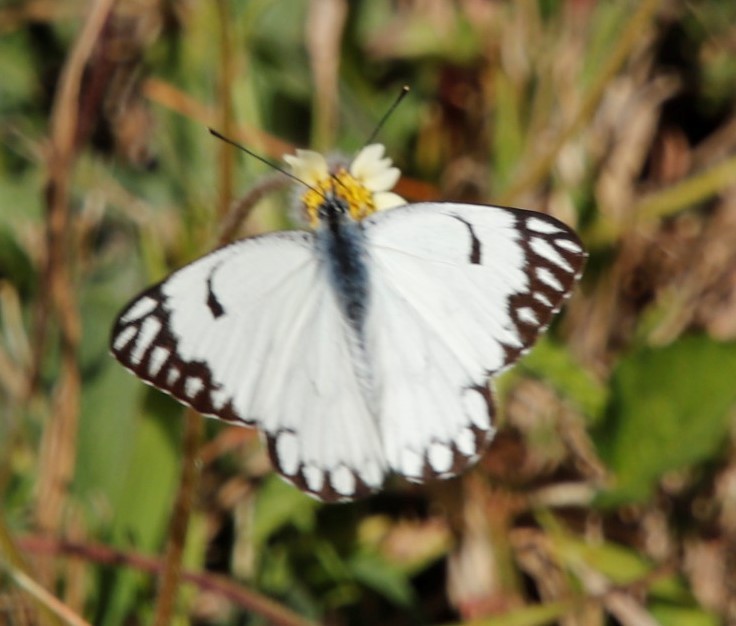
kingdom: Animalia
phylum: Arthropoda
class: Insecta
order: Lepidoptera
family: Pieridae
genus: Belenois
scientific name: Belenois aurota
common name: Brown-veined white
